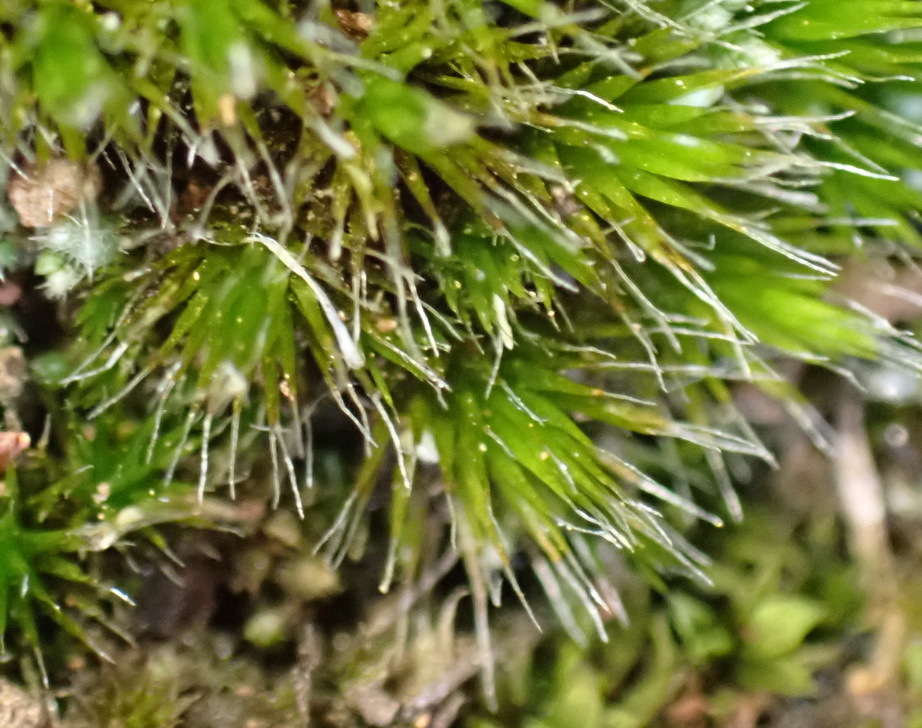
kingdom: Plantae
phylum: Bryophyta
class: Bryopsida
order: Dicranales
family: Leucobryaceae
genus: Campylopus
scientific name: Campylopus pilifer
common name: Campylopus moss
